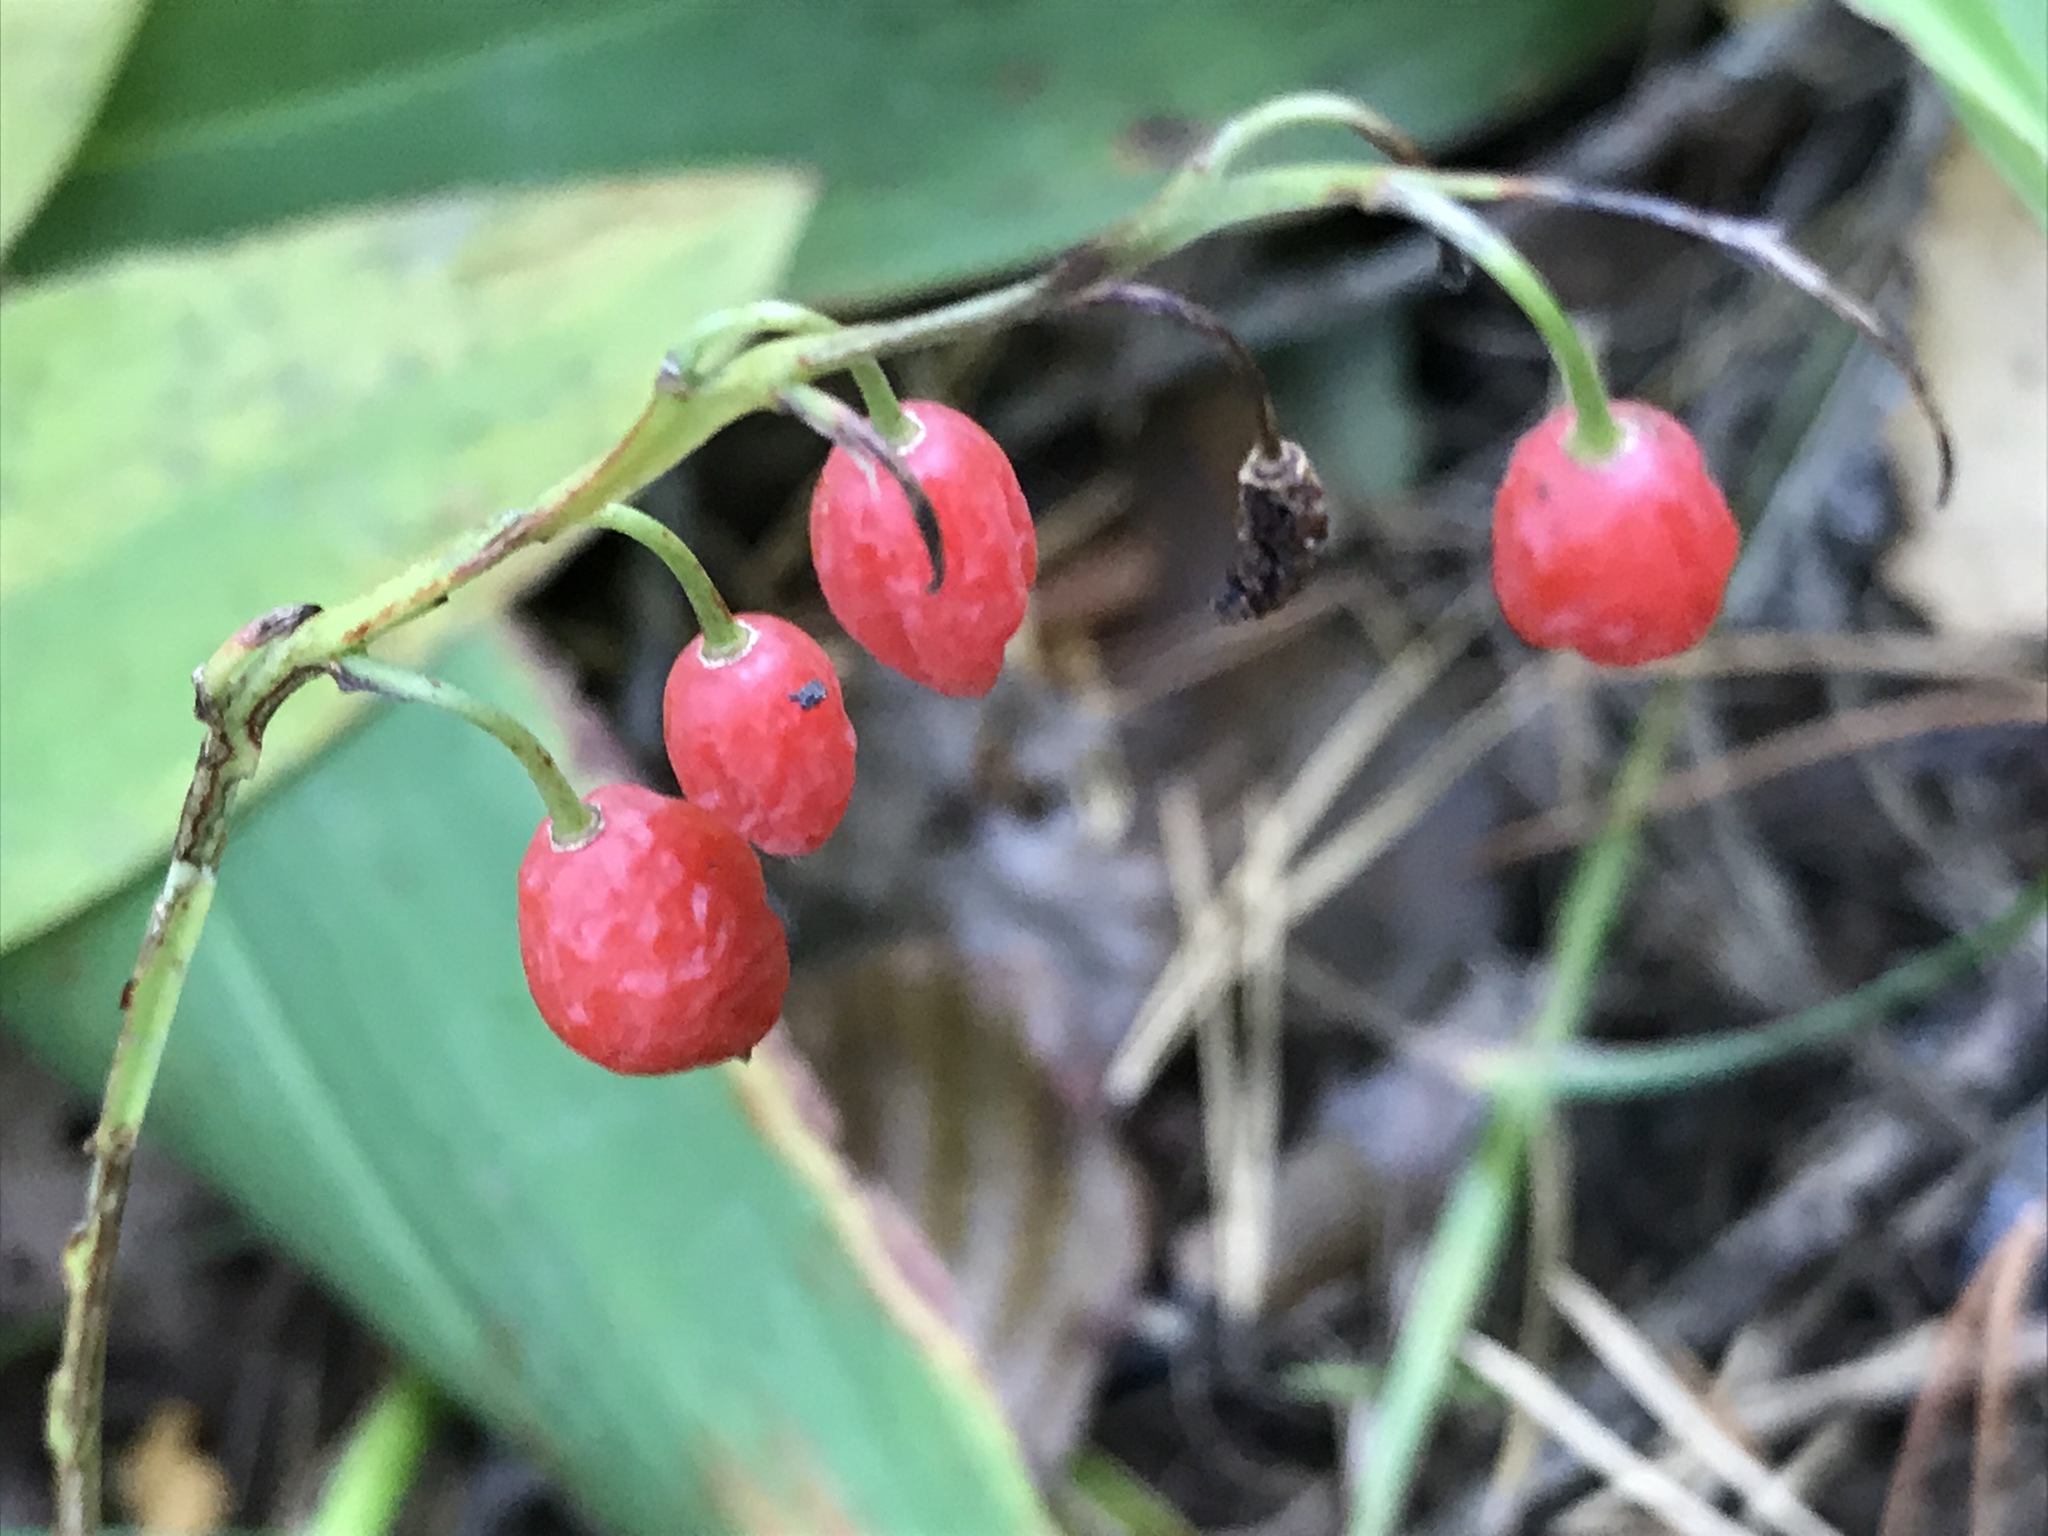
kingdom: Plantae
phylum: Tracheophyta
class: Liliopsida
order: Asparagales
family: Asparagaceae
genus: Convallaria
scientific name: Convallaria majalis
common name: Lily-of-the-valley
